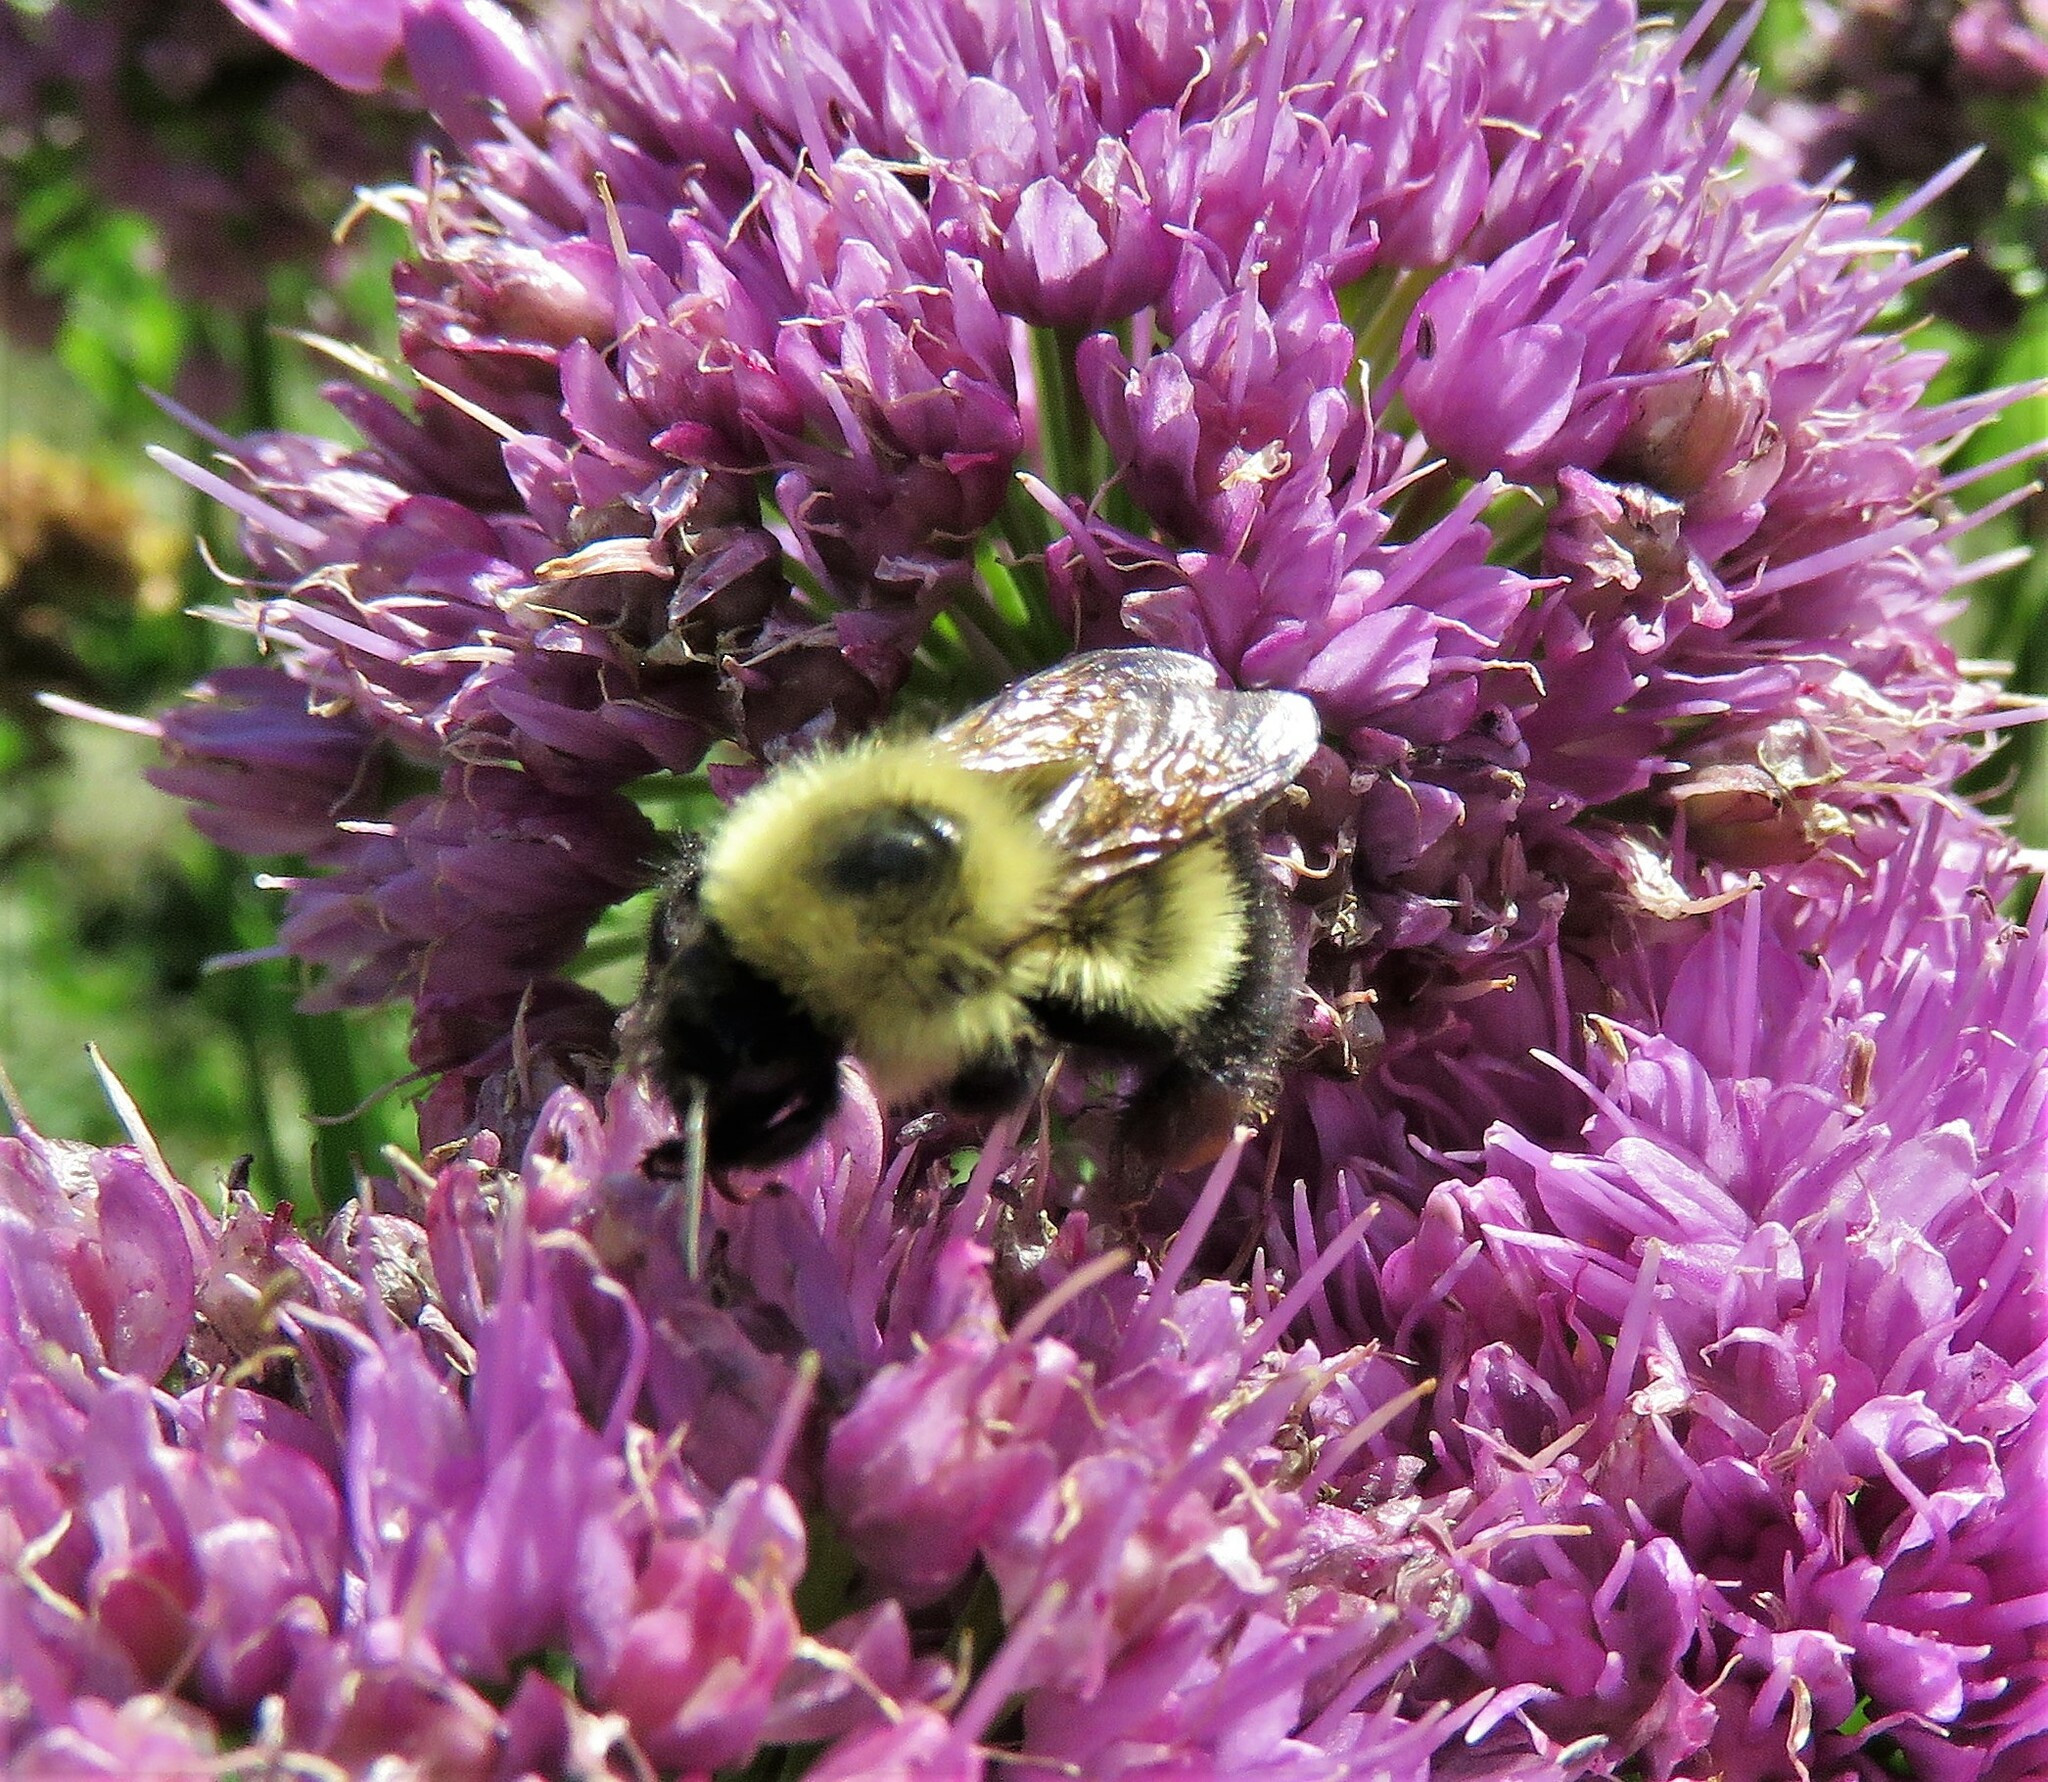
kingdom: Animalia
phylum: Arthropoda
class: Insecta
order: Hymenoptera
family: Apidae
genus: Pyrobombus
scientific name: Pyrobombus
